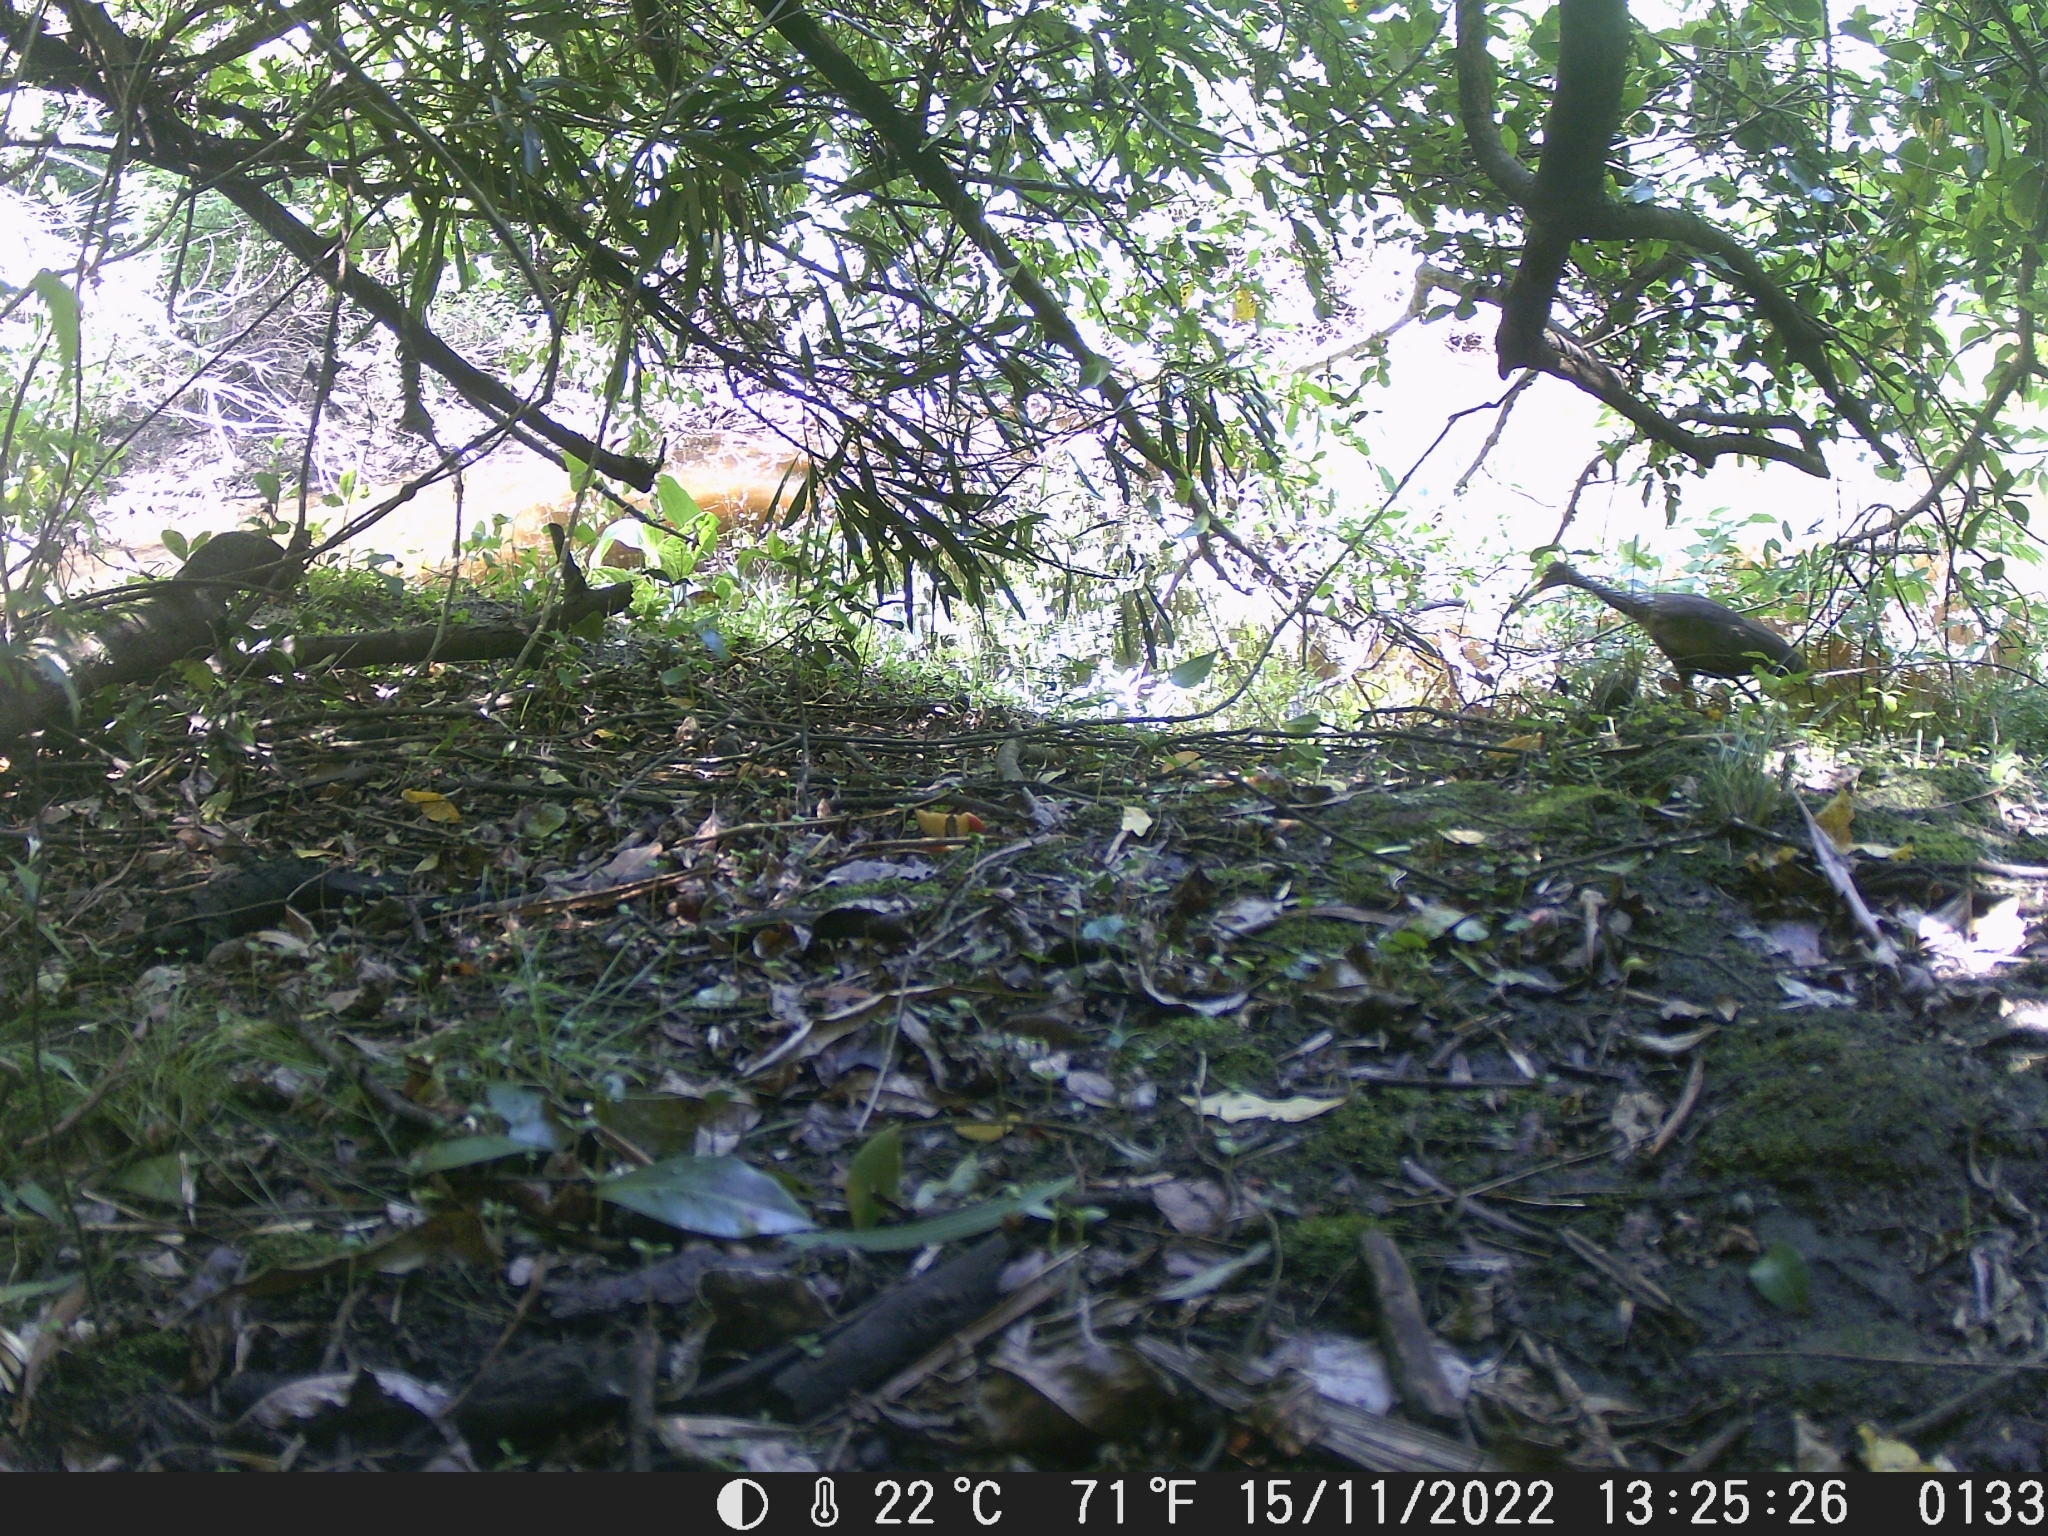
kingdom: Animalia
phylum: Chordata
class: Aves
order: Gruiformes
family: Aramidae
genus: Aramus
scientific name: Aramus guarauna
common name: Limpkin
